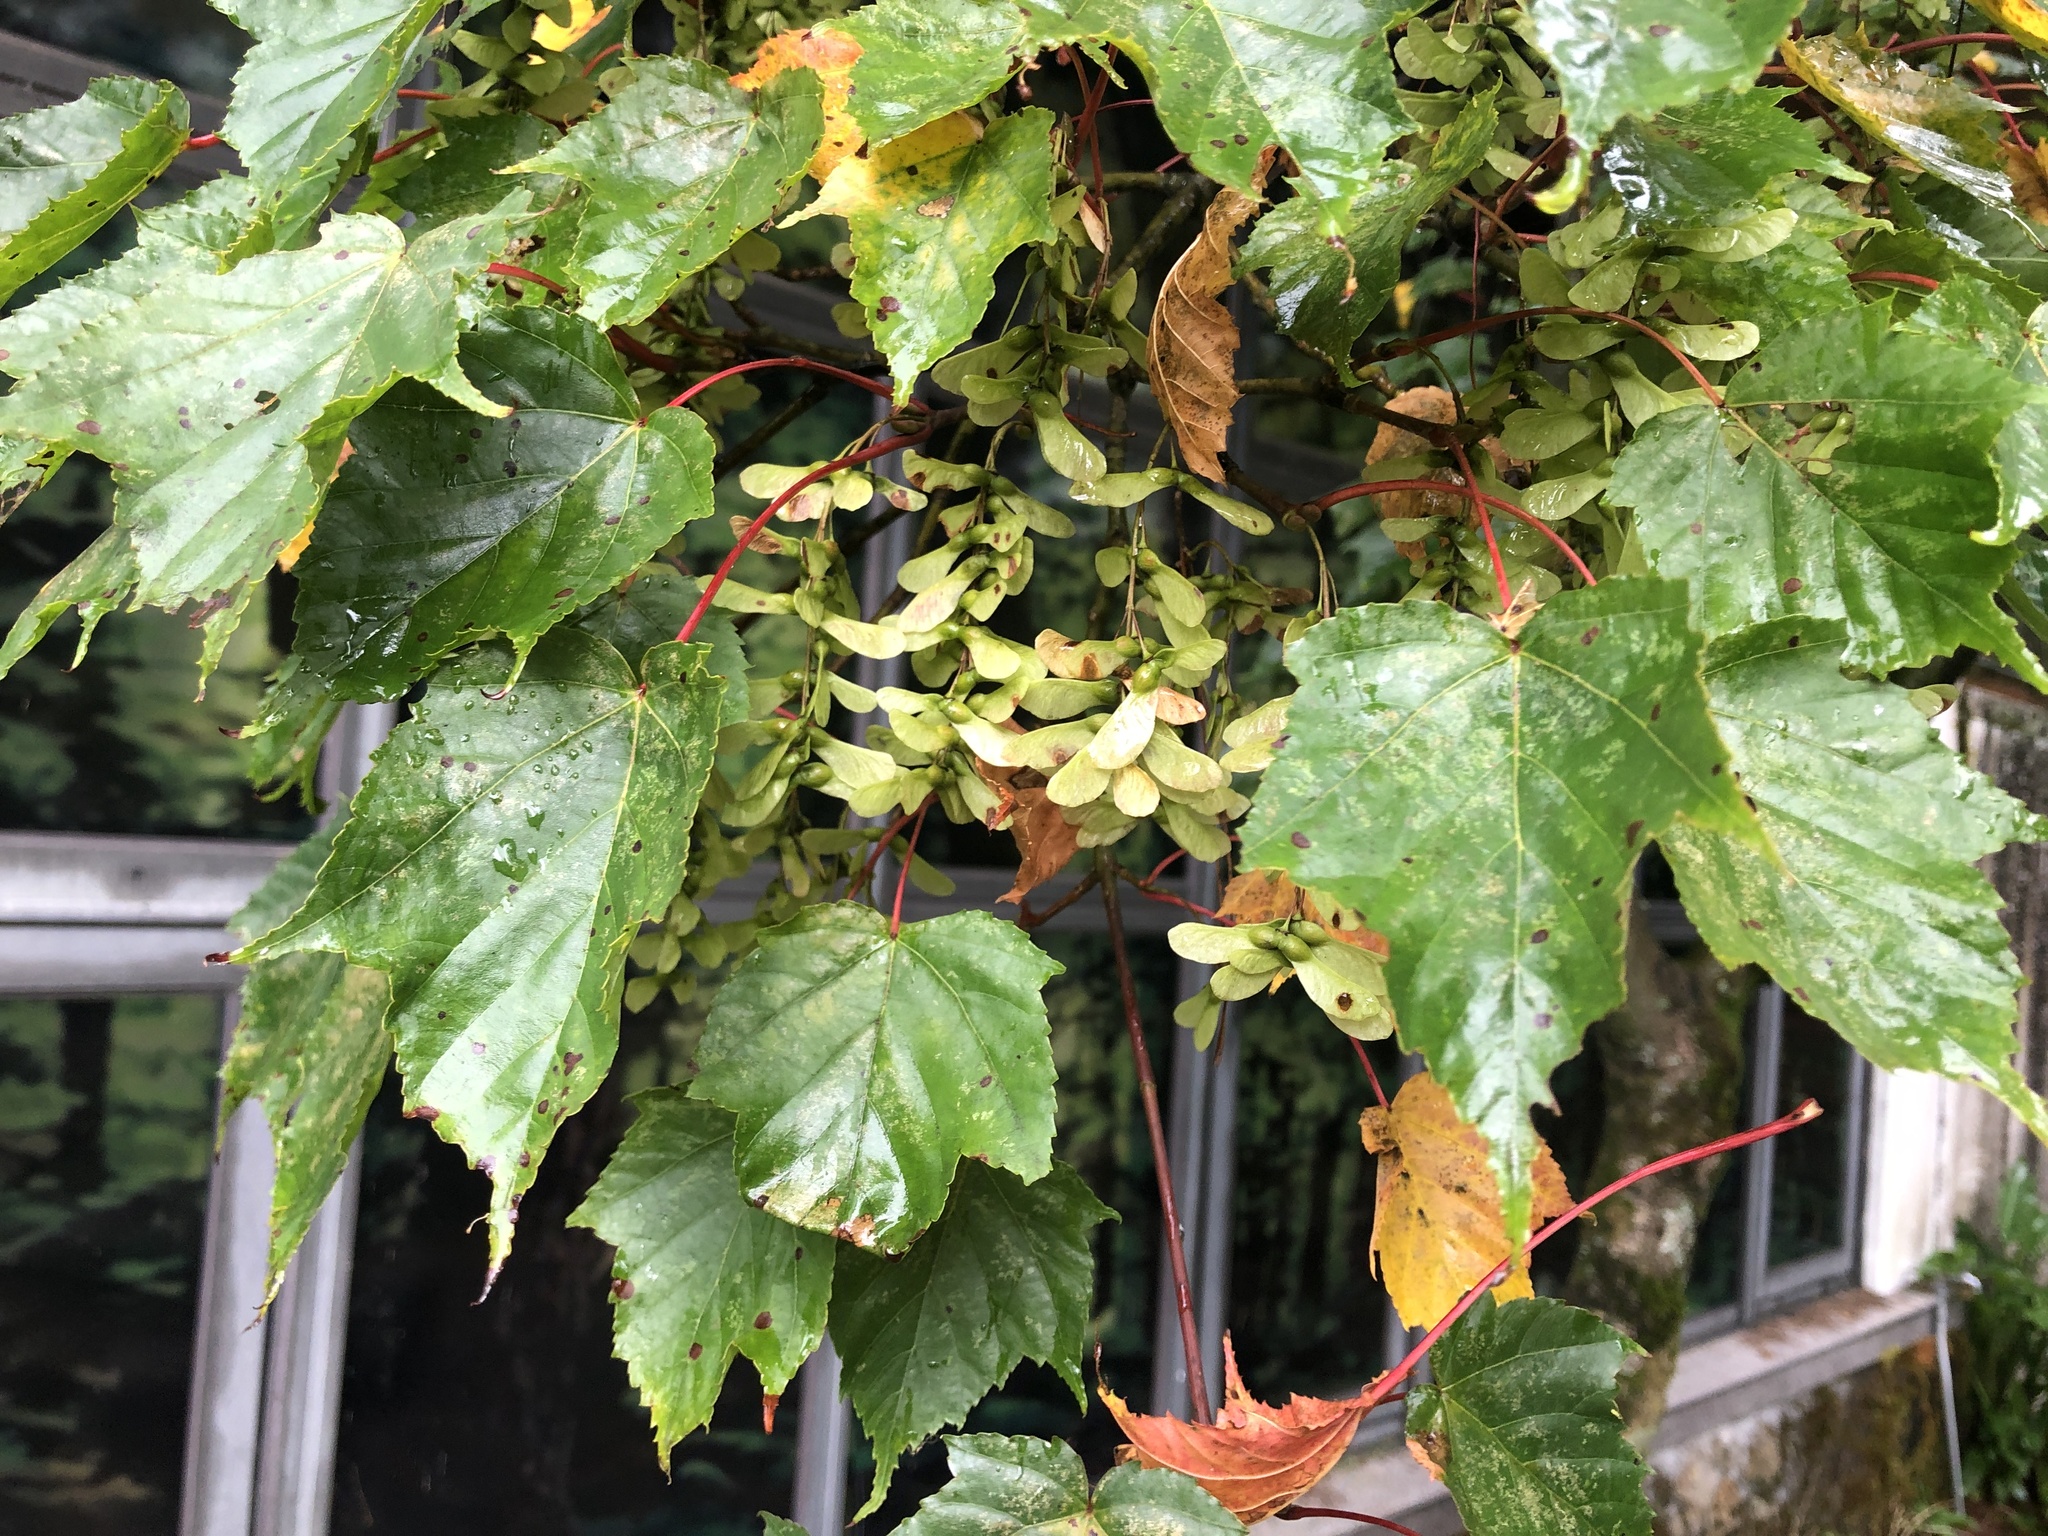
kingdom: Plantae
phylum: Tracheophyta
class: Magnoliopsida
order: Sapindales
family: Sapindaceae
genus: Acer
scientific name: Acer caudatifolium
